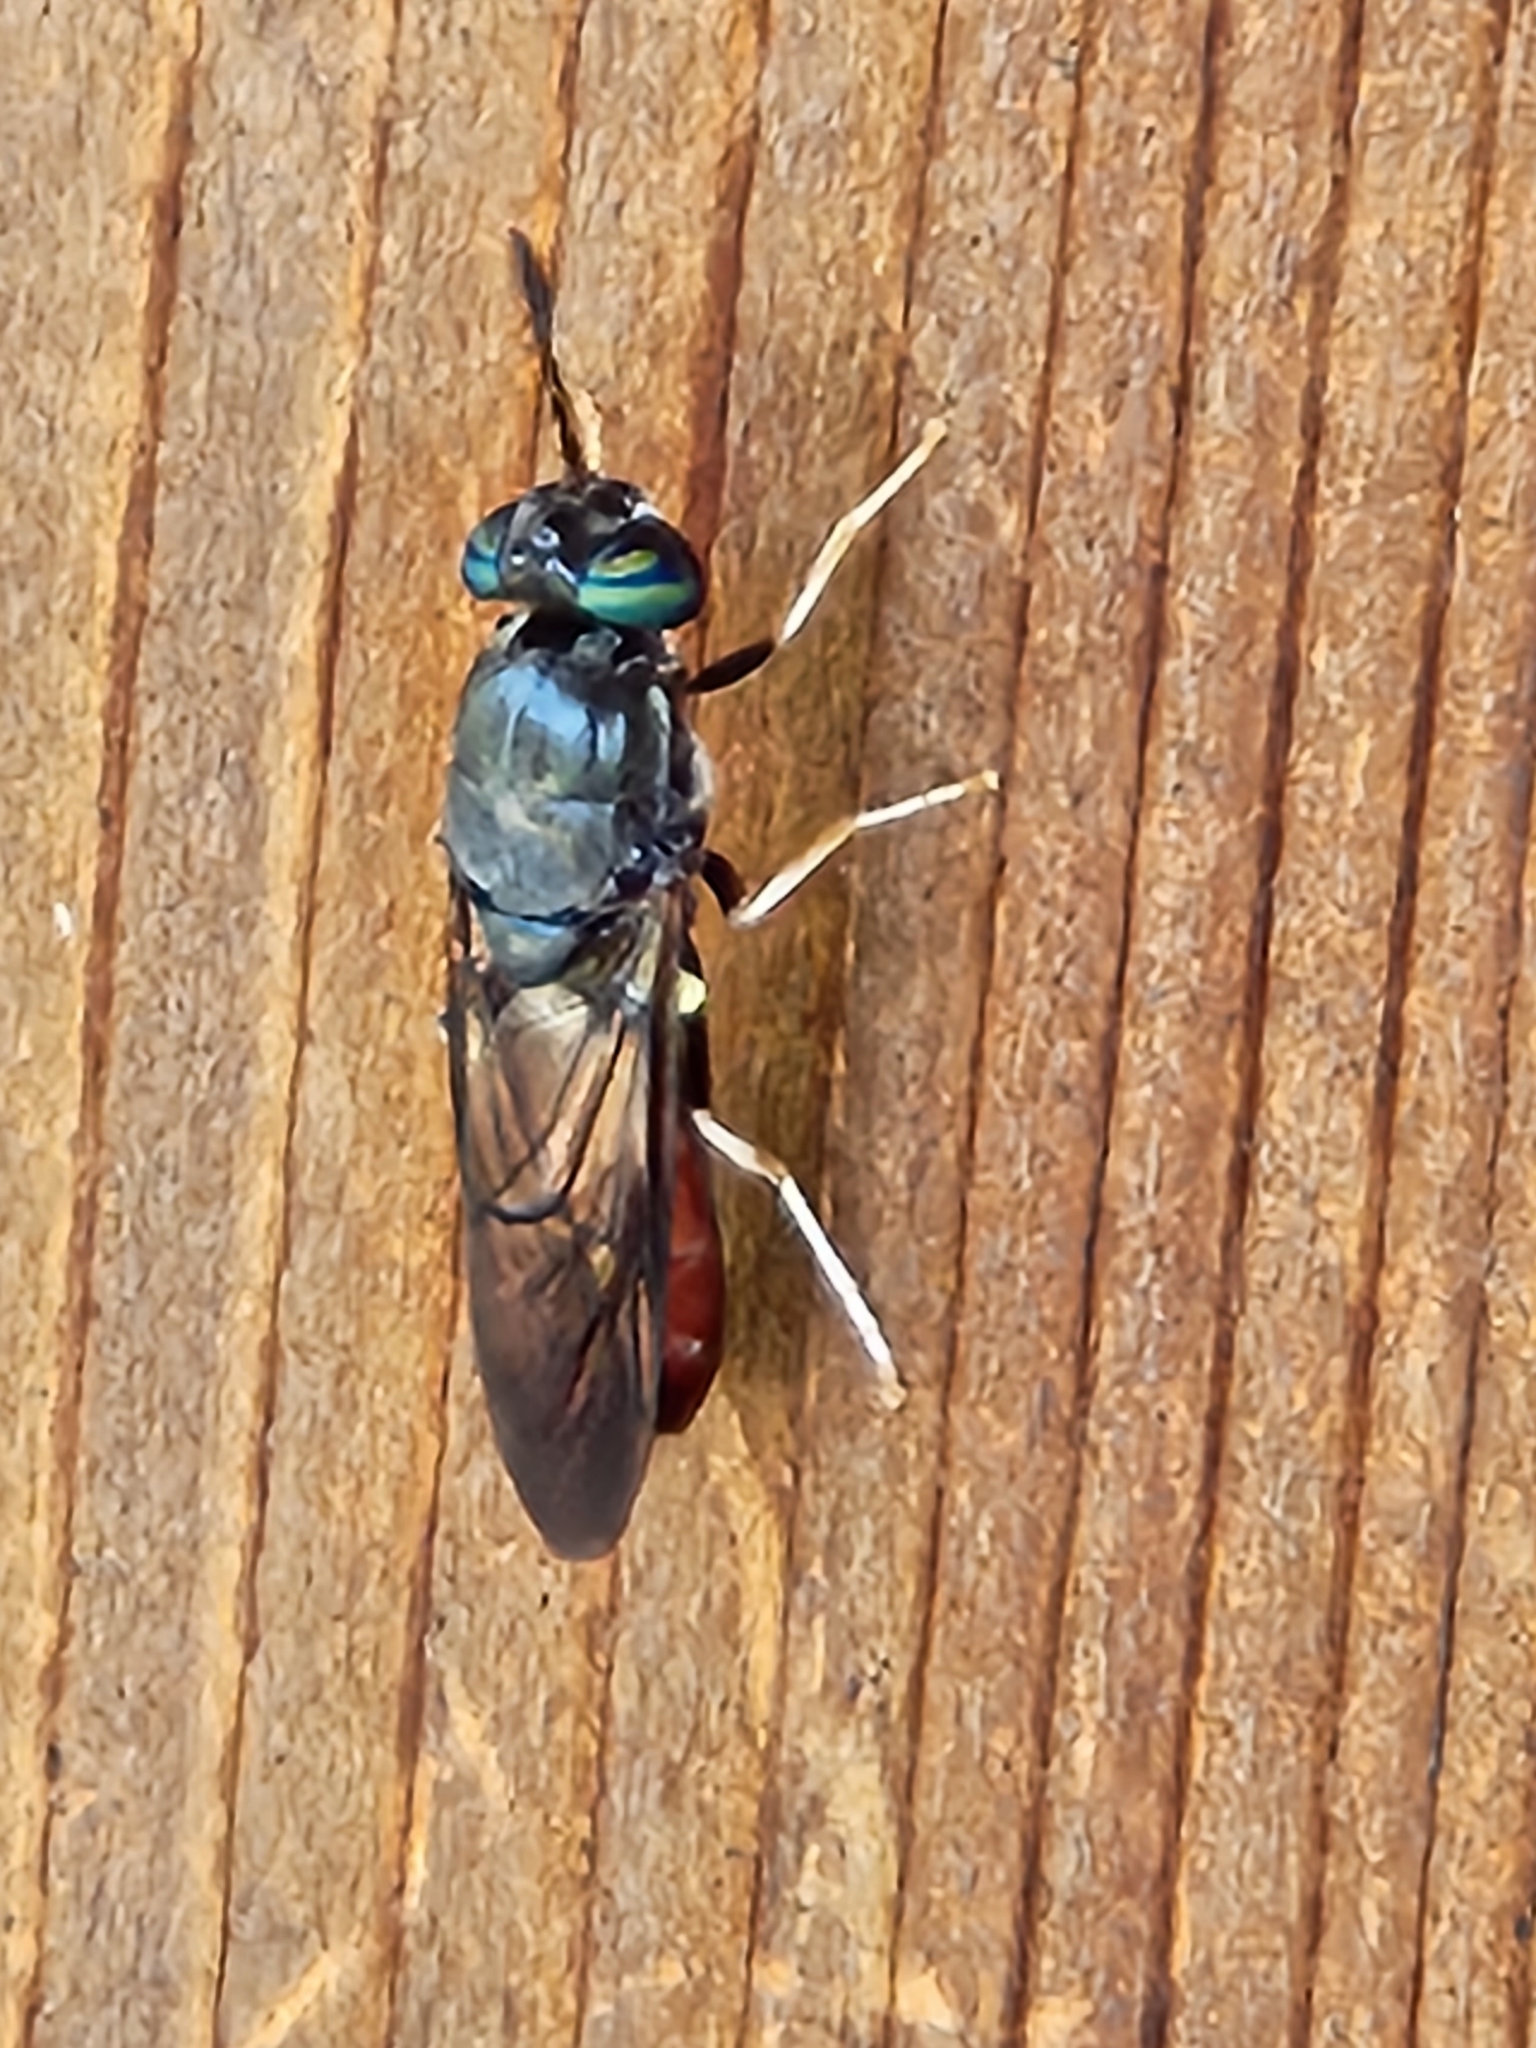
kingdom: Animalia
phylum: Arthropoda
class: Insecta
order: Diptera
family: Stratiomyidae
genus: Hermetia
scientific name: Hermetia relicta
